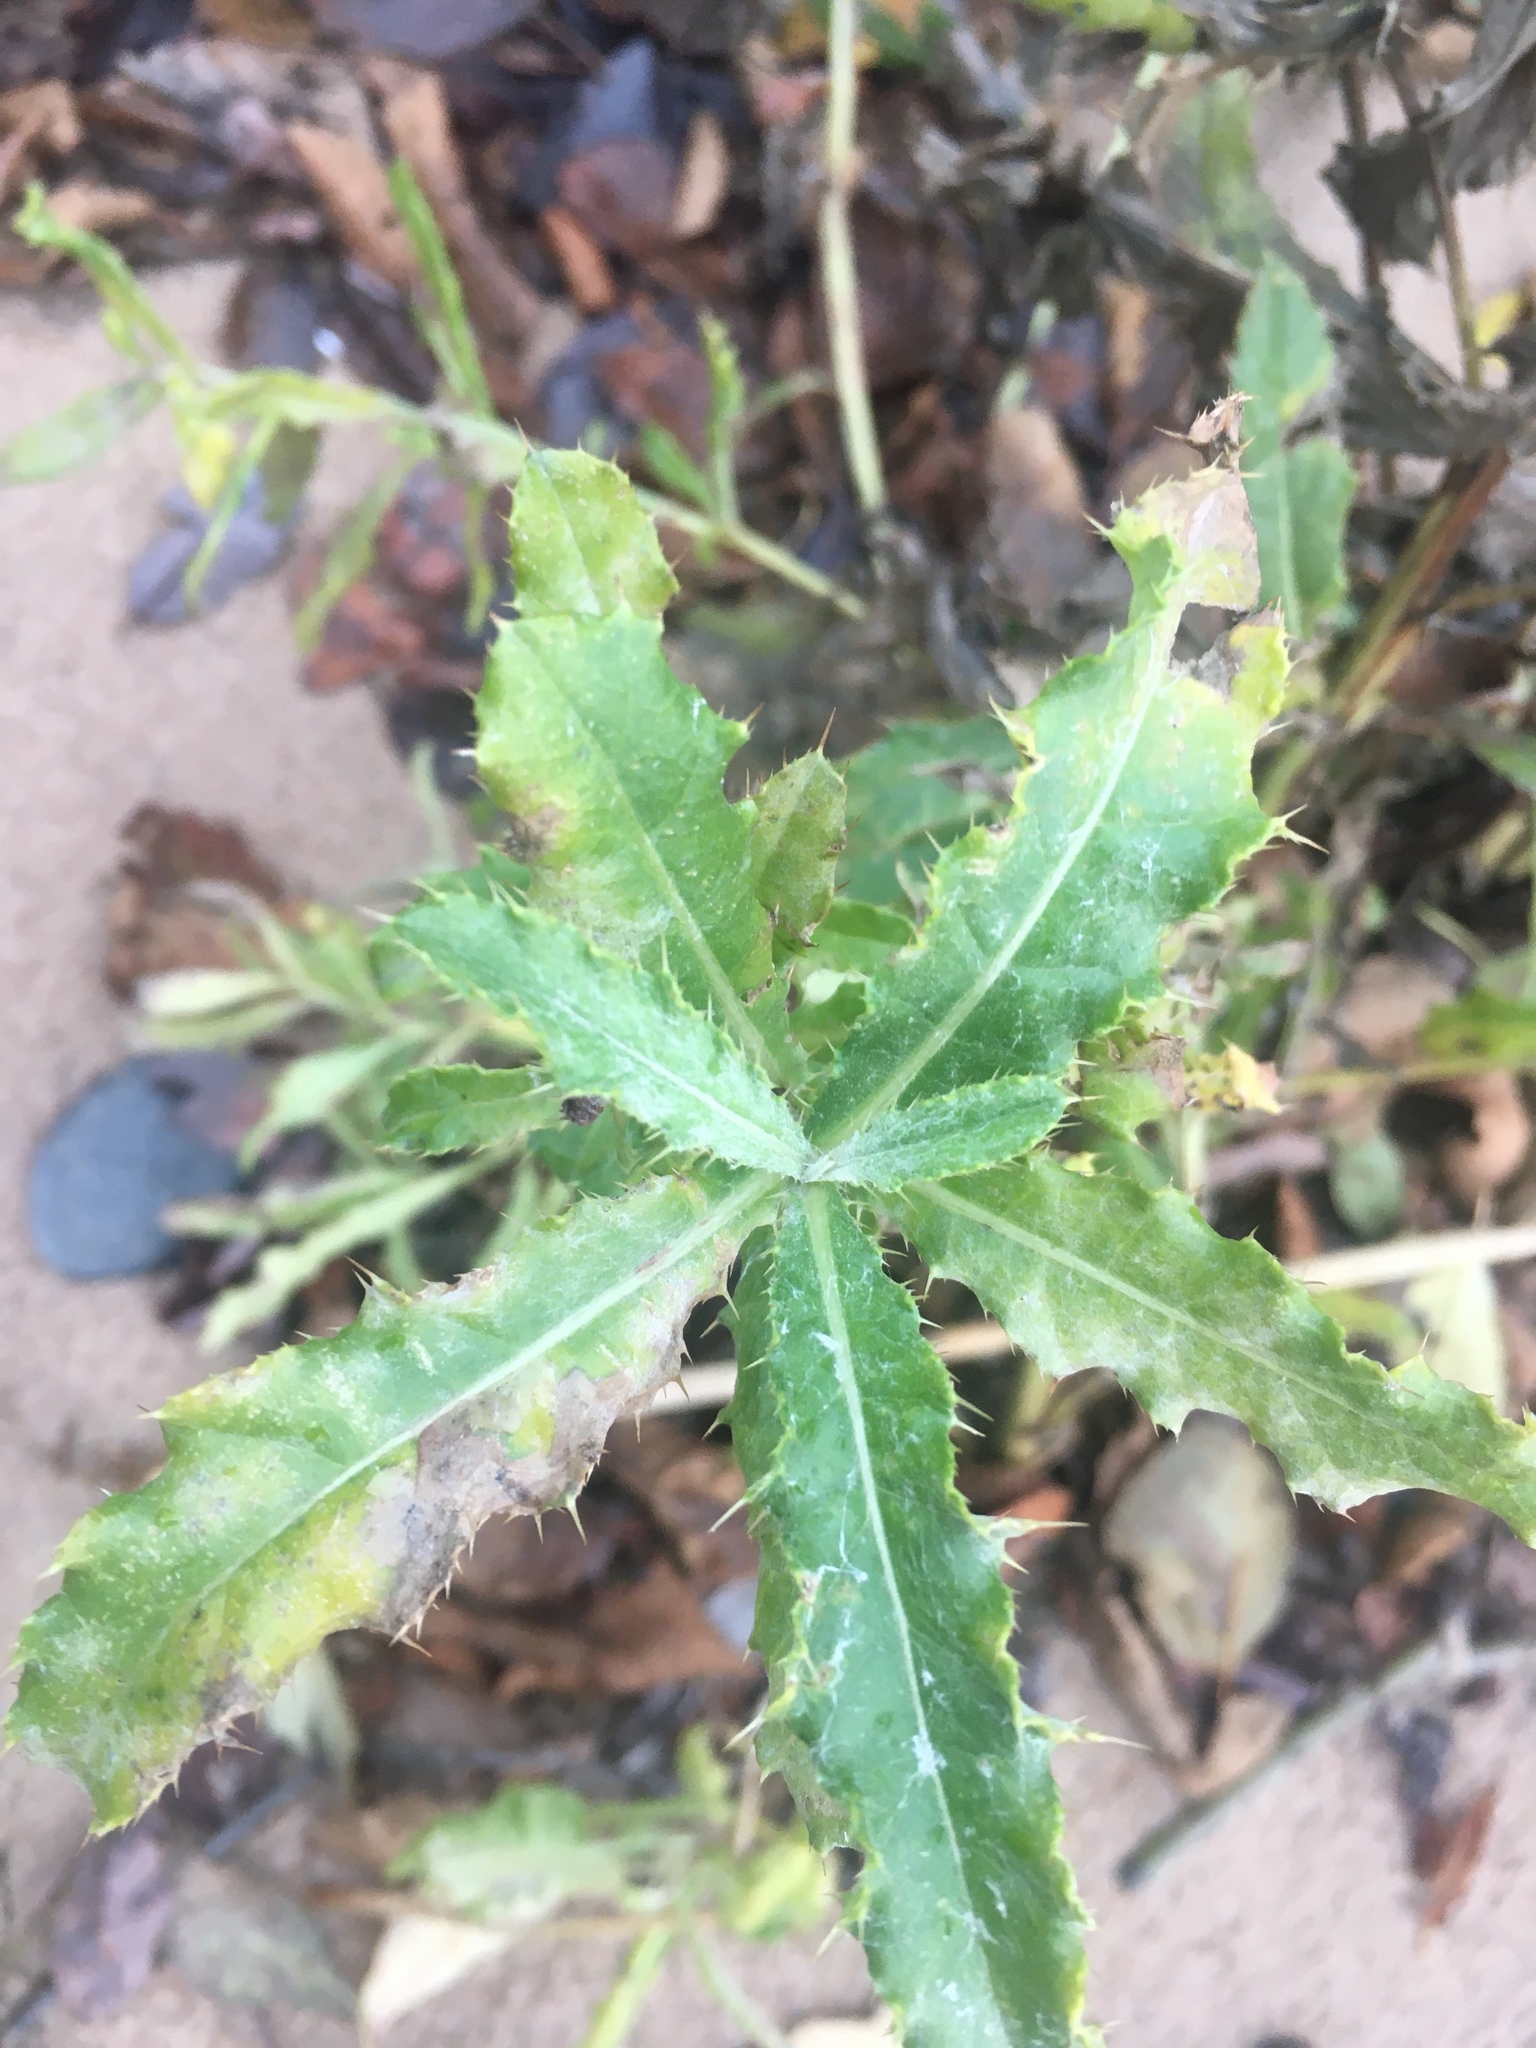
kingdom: Plantae
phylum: Tracheophyta
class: Magnoliopsida
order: Asterales
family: Asteraceae
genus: Cirsium
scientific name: Cirsium arvense
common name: Creeping thistle
